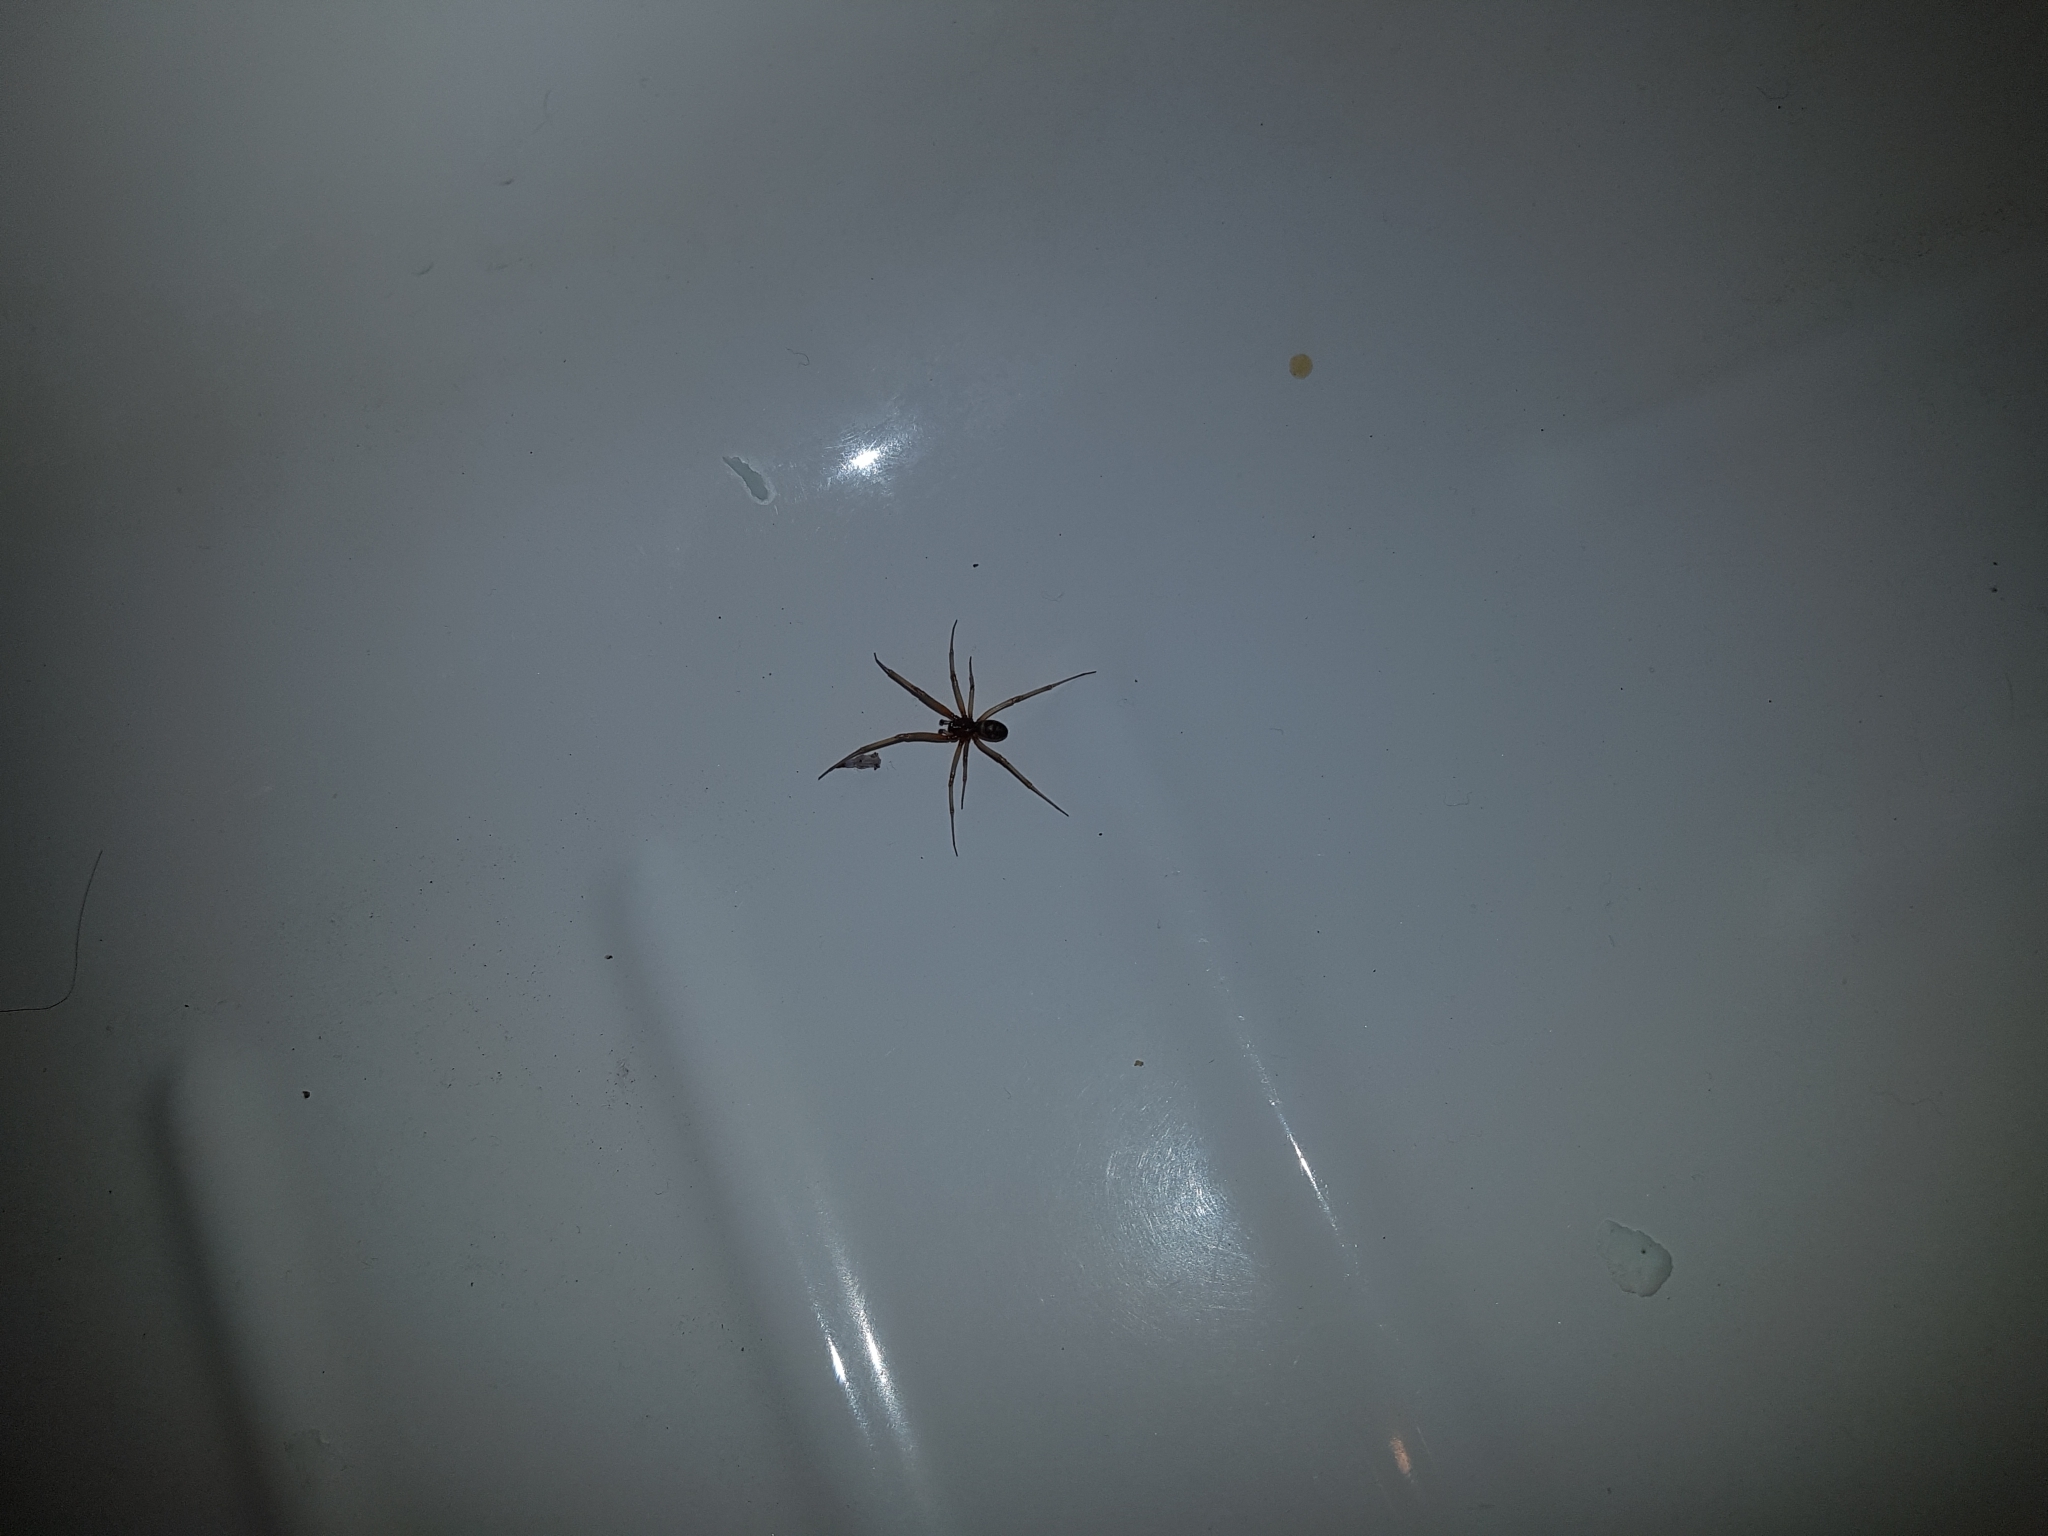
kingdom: Animalia
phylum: Arthropoda
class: Arachnida
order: Araneae
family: Theridiidae
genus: Steatoda
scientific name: Steatoda grossa
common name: False black widow
